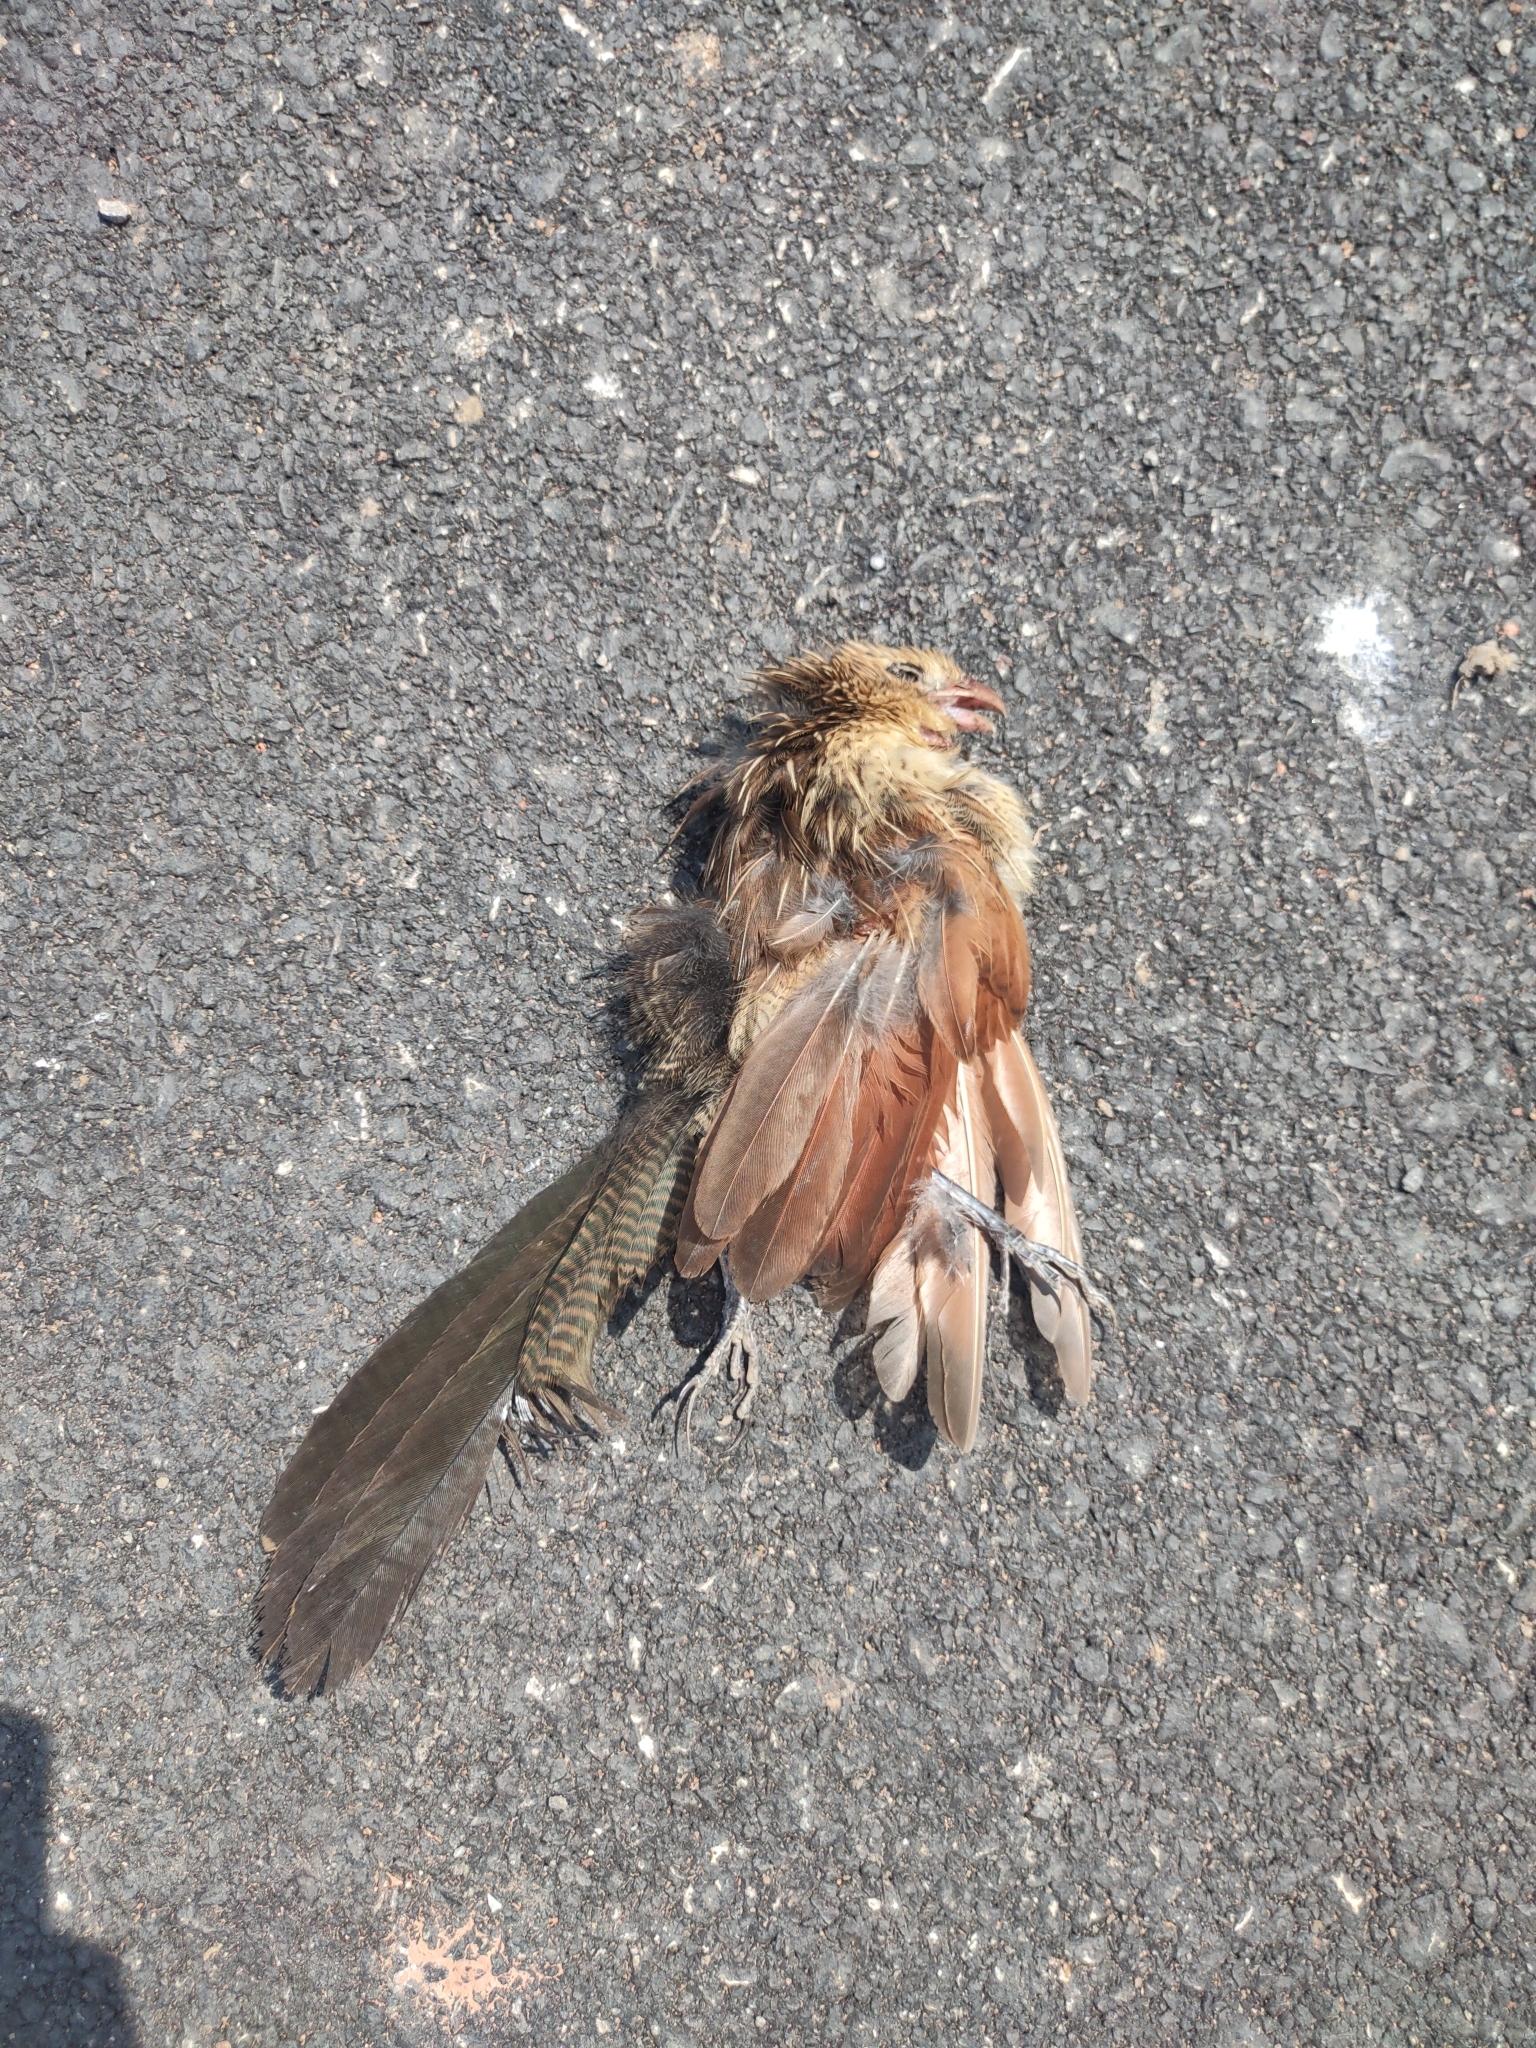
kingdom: Animalia
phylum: Chordata
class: Aves
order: Cuculiformes
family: Cuculidae
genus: Centropus
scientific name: Centropus bengalensis
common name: Lesser coucal
